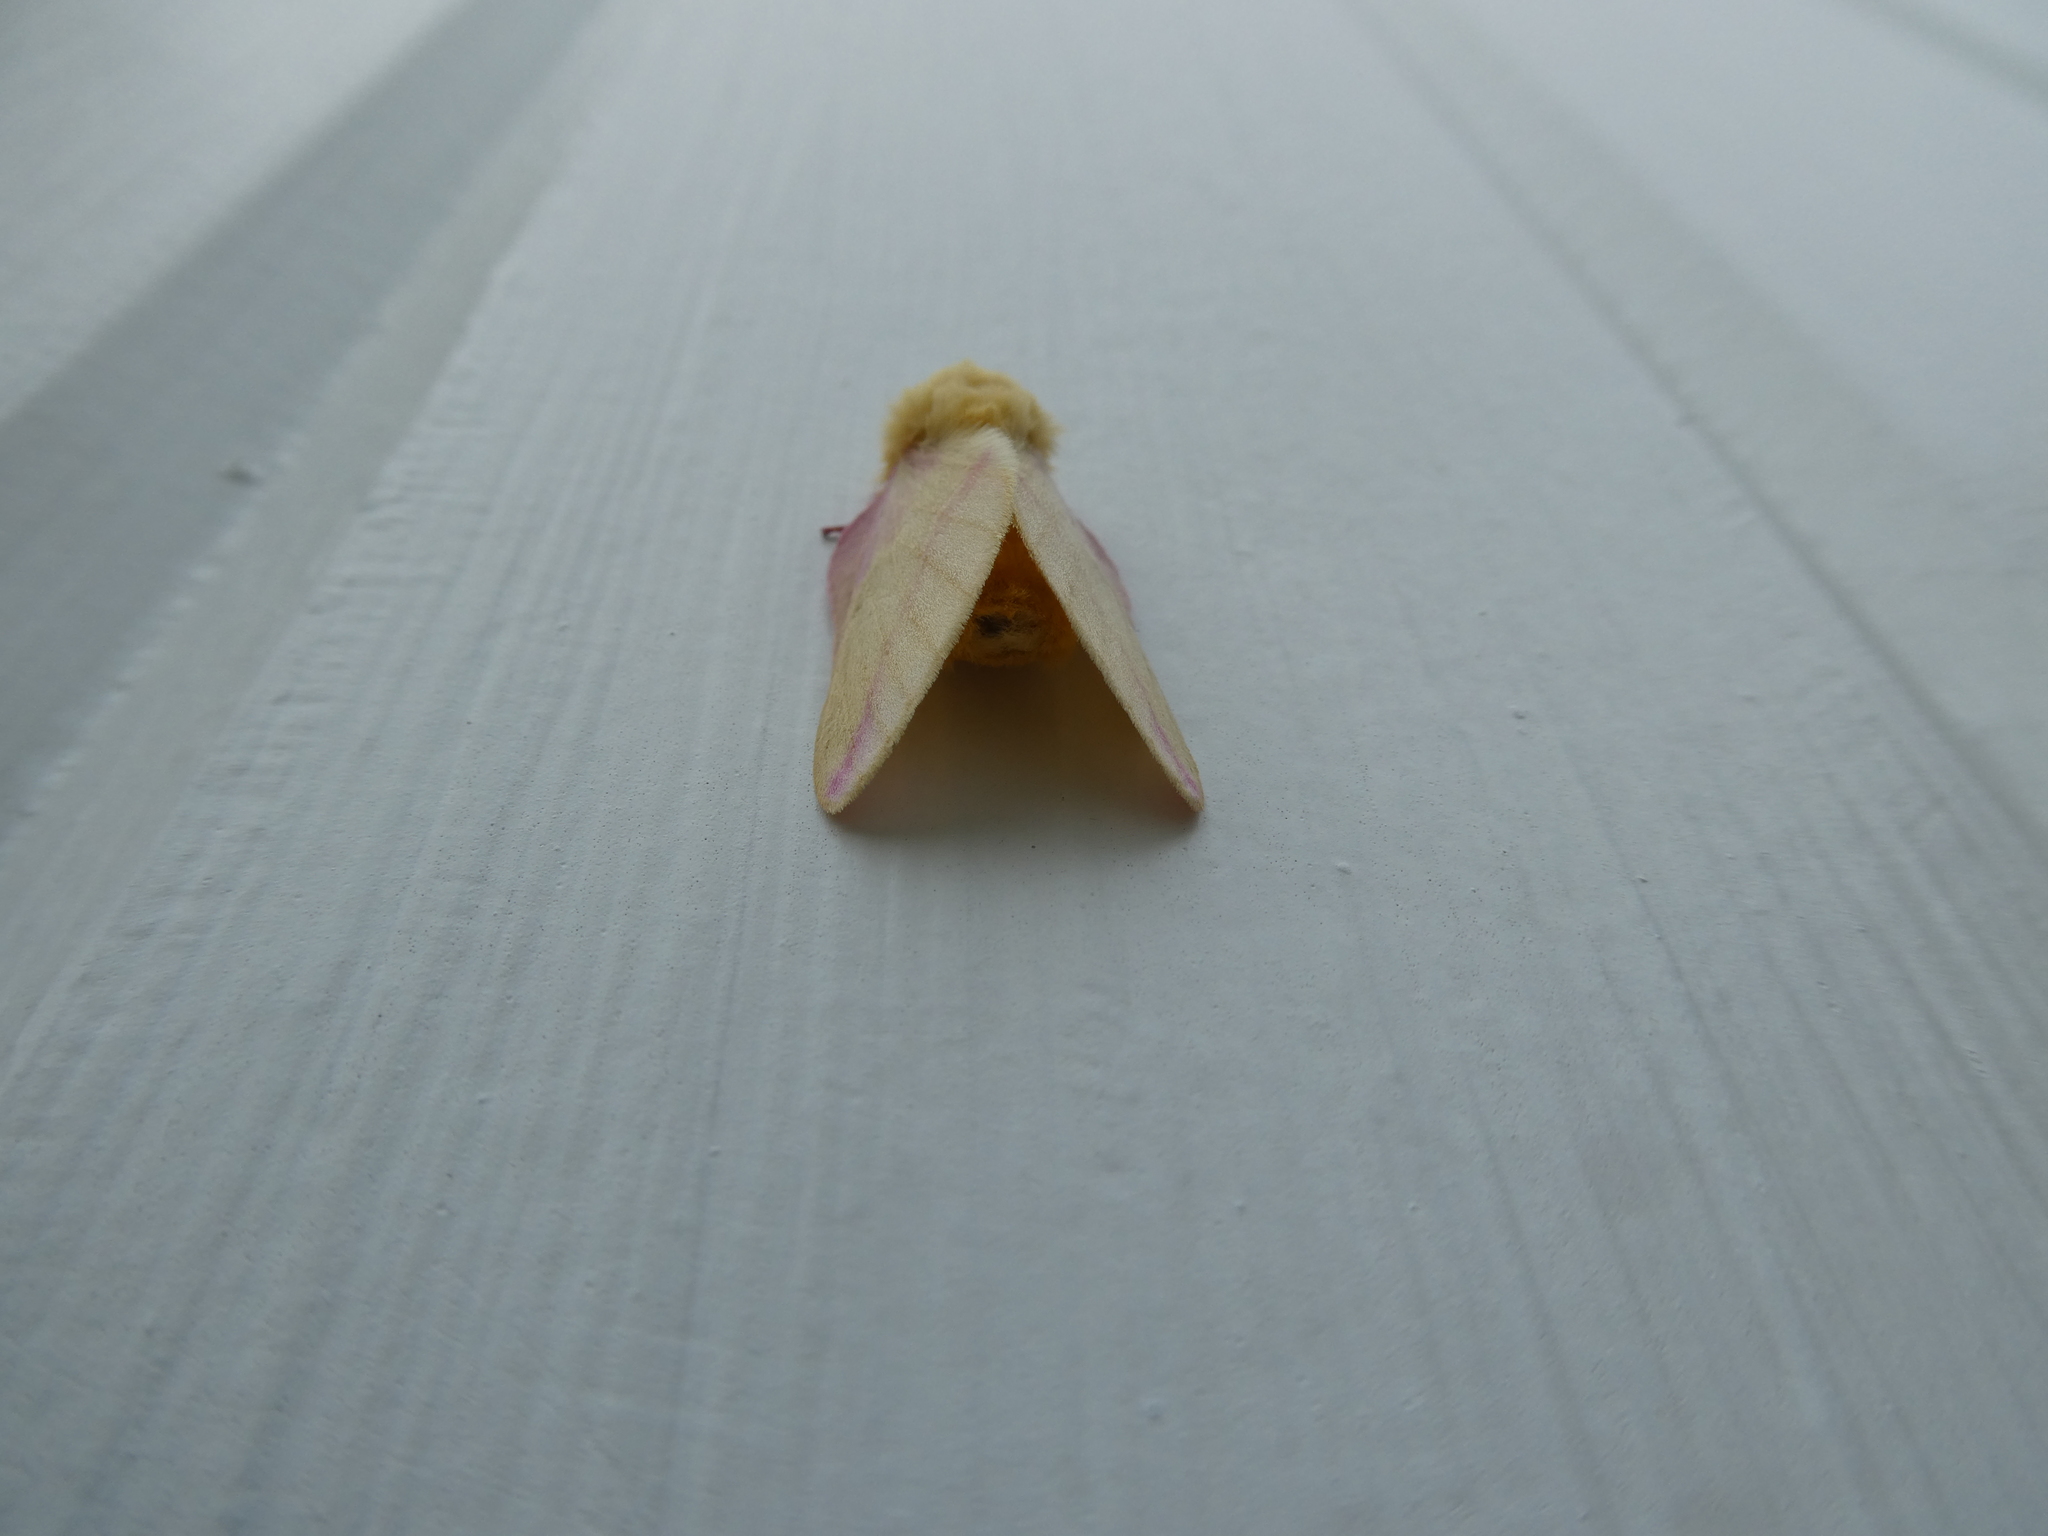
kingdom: Animalia
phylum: Arthropoda
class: Insecta
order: Lepidoptera
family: Saturniidae
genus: Dryocampa
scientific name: Dryocampa rubicunda
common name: Rosy maple moth
